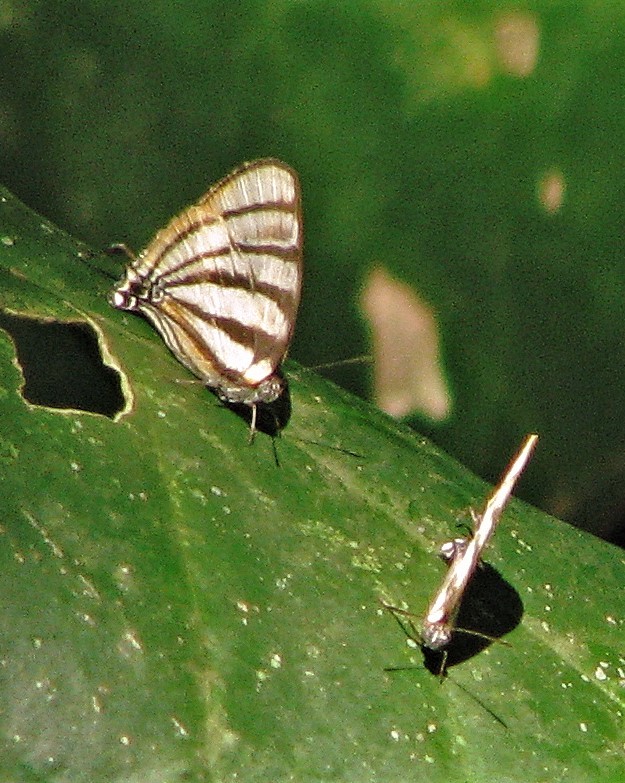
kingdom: Animalia
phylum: Arthropoda
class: Insecta
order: Lepidoptera
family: Lycaenidae
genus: Arawacus
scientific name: Arawacus separata
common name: Separated stripestreak
